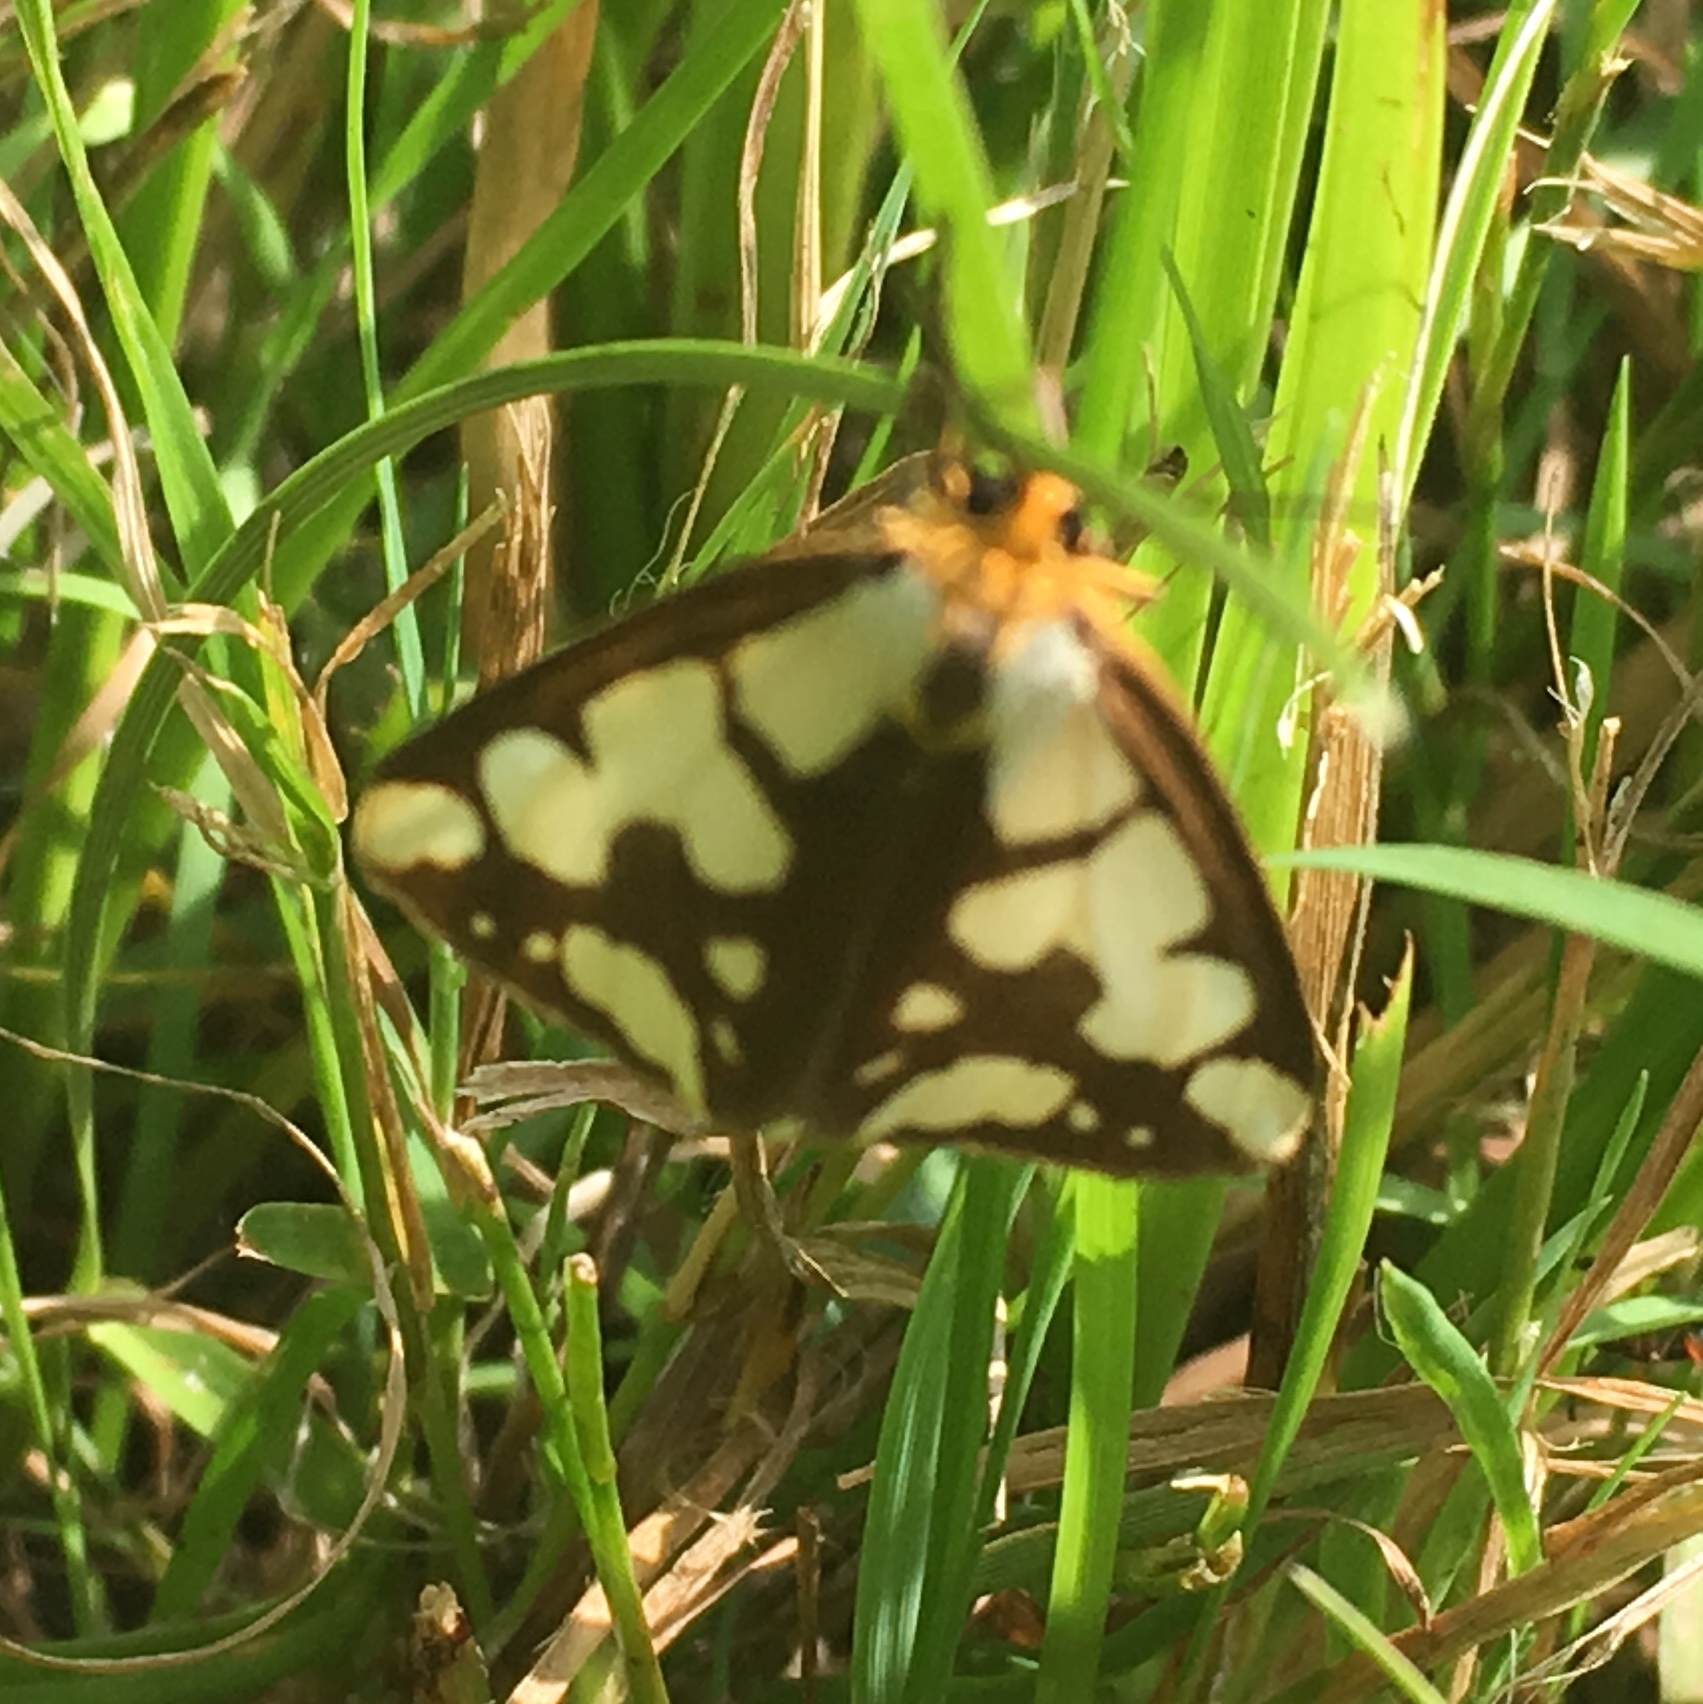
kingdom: Animalia
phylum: Arthropoda
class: Insecta
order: Lepidoptera
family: Erebidae
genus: Haploa
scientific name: Haploa confusa
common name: Confused haploa moth
